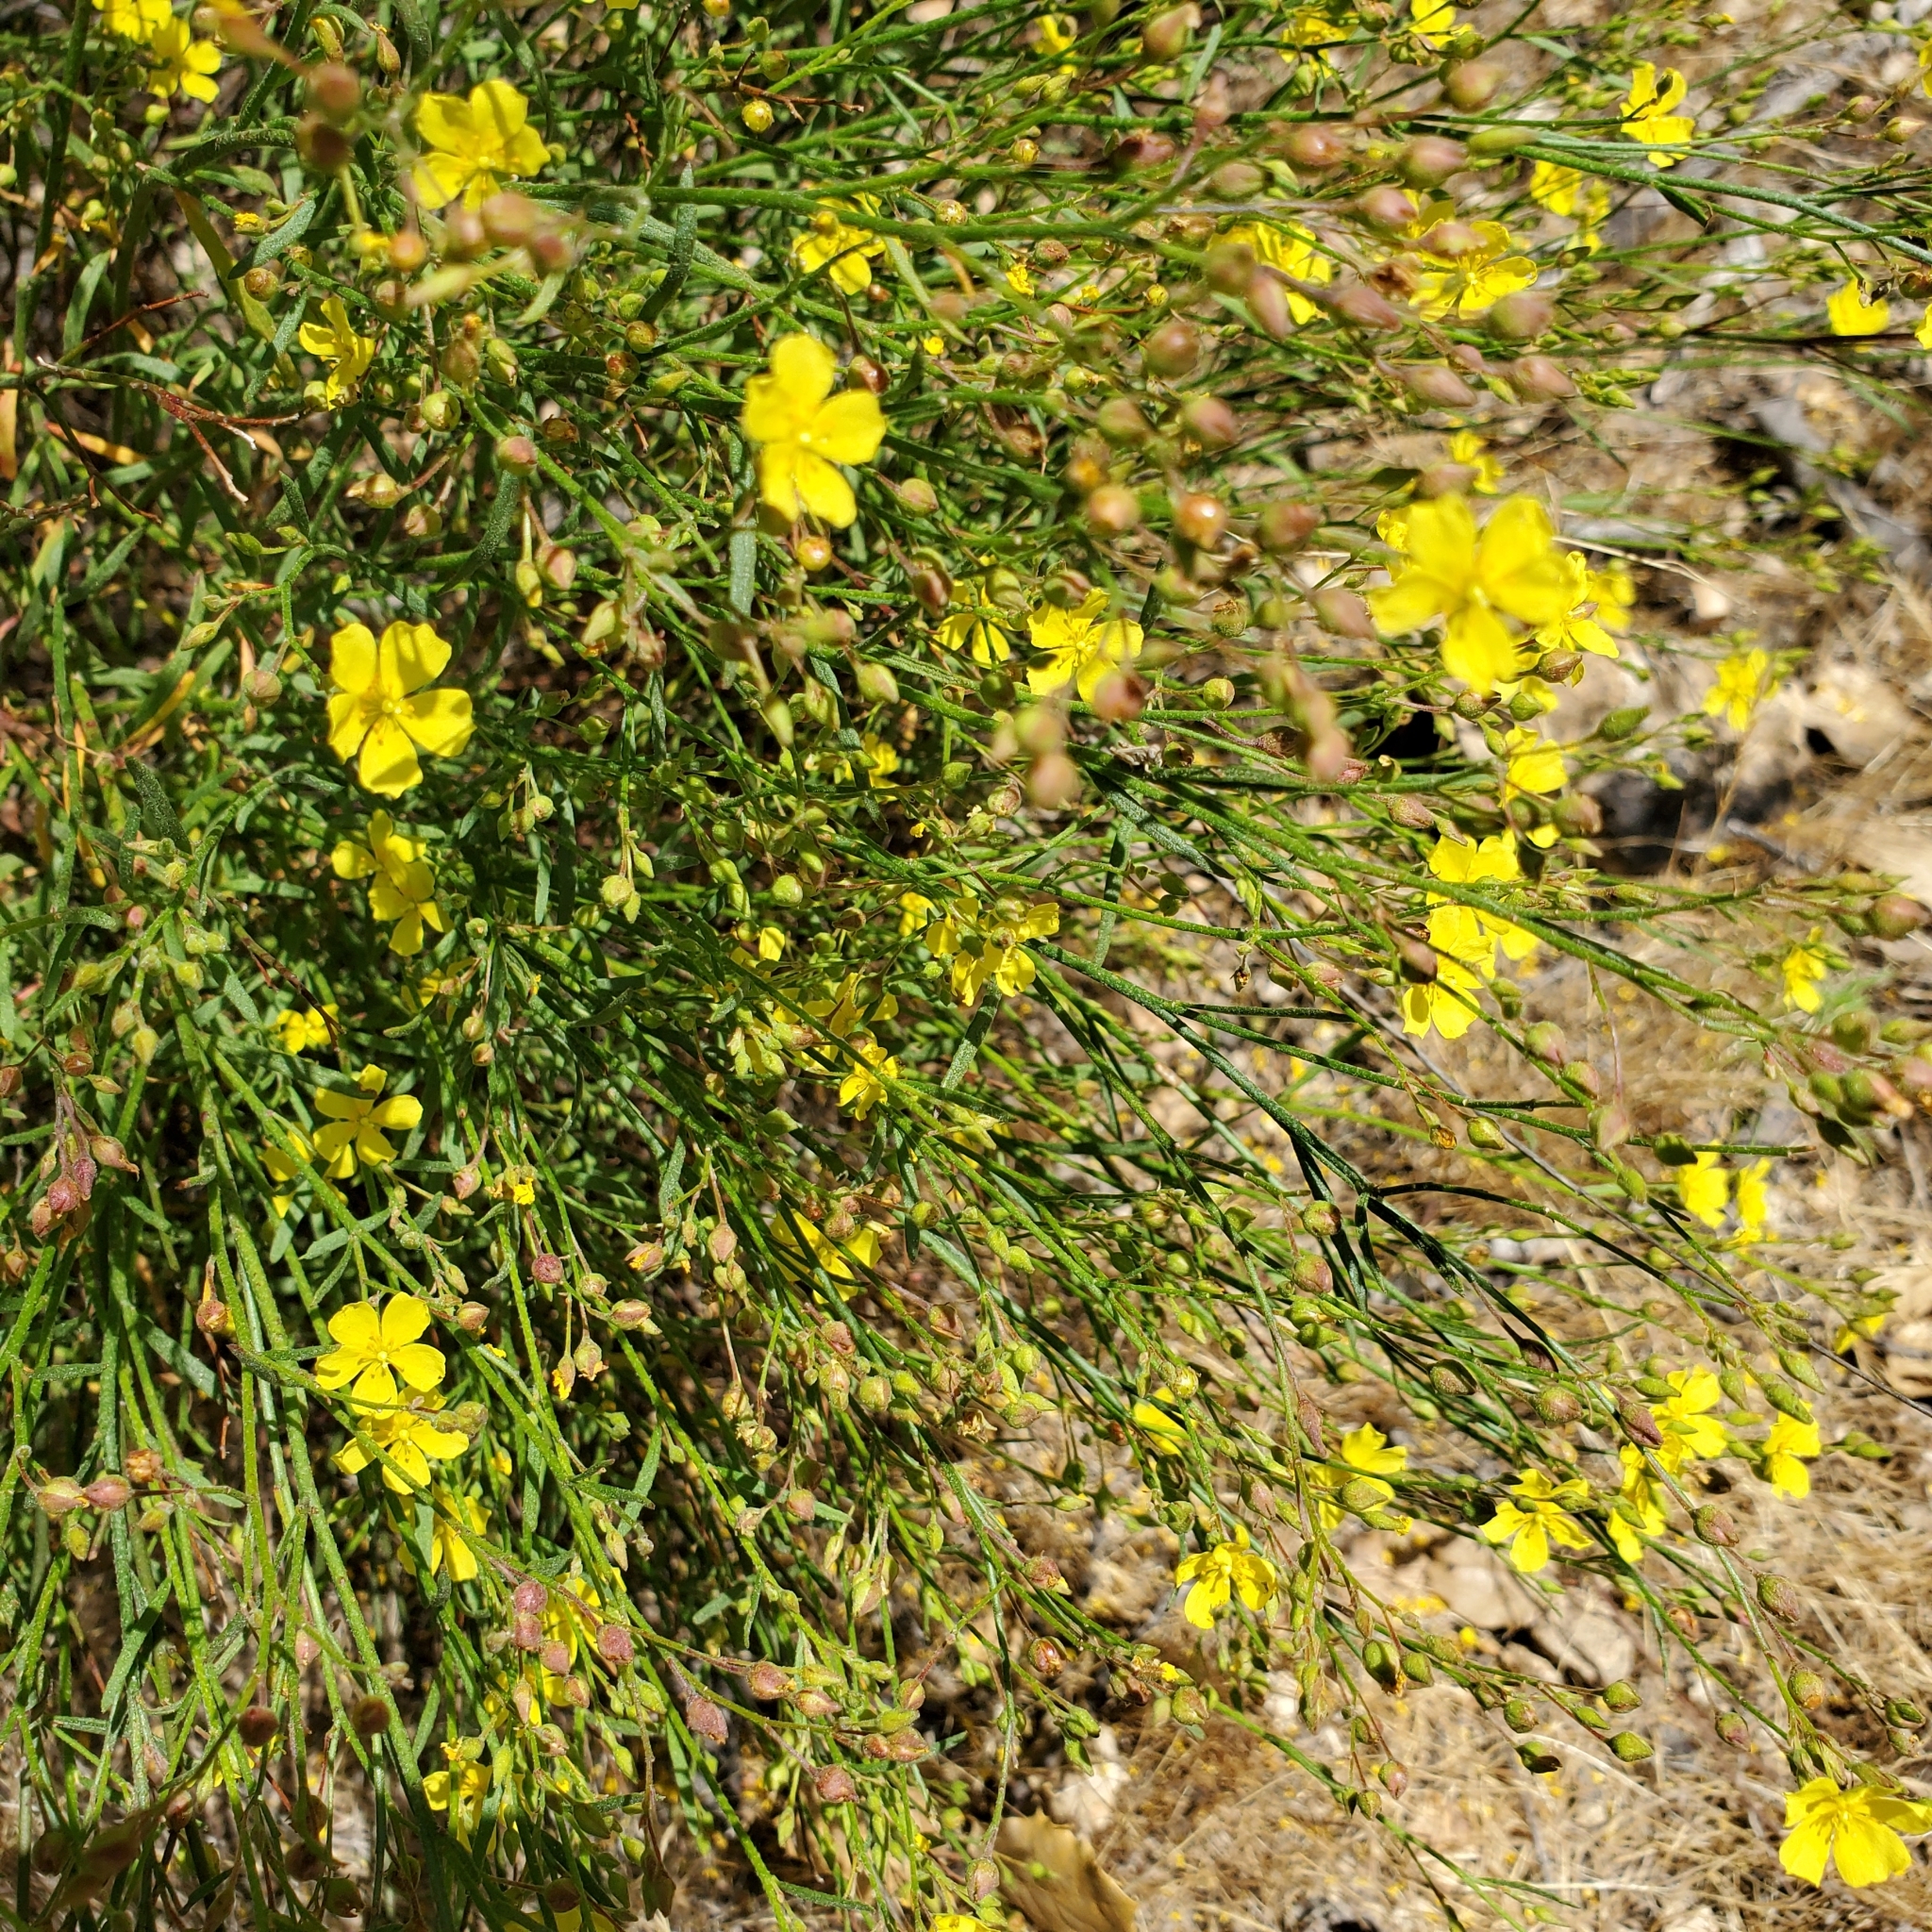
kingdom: Plantae
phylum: Tracheophyta
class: Magnoliopsida
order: Malvales
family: Cistaceae
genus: Crocanthemum
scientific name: Crocanthemum scoparium
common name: Broom-rose
